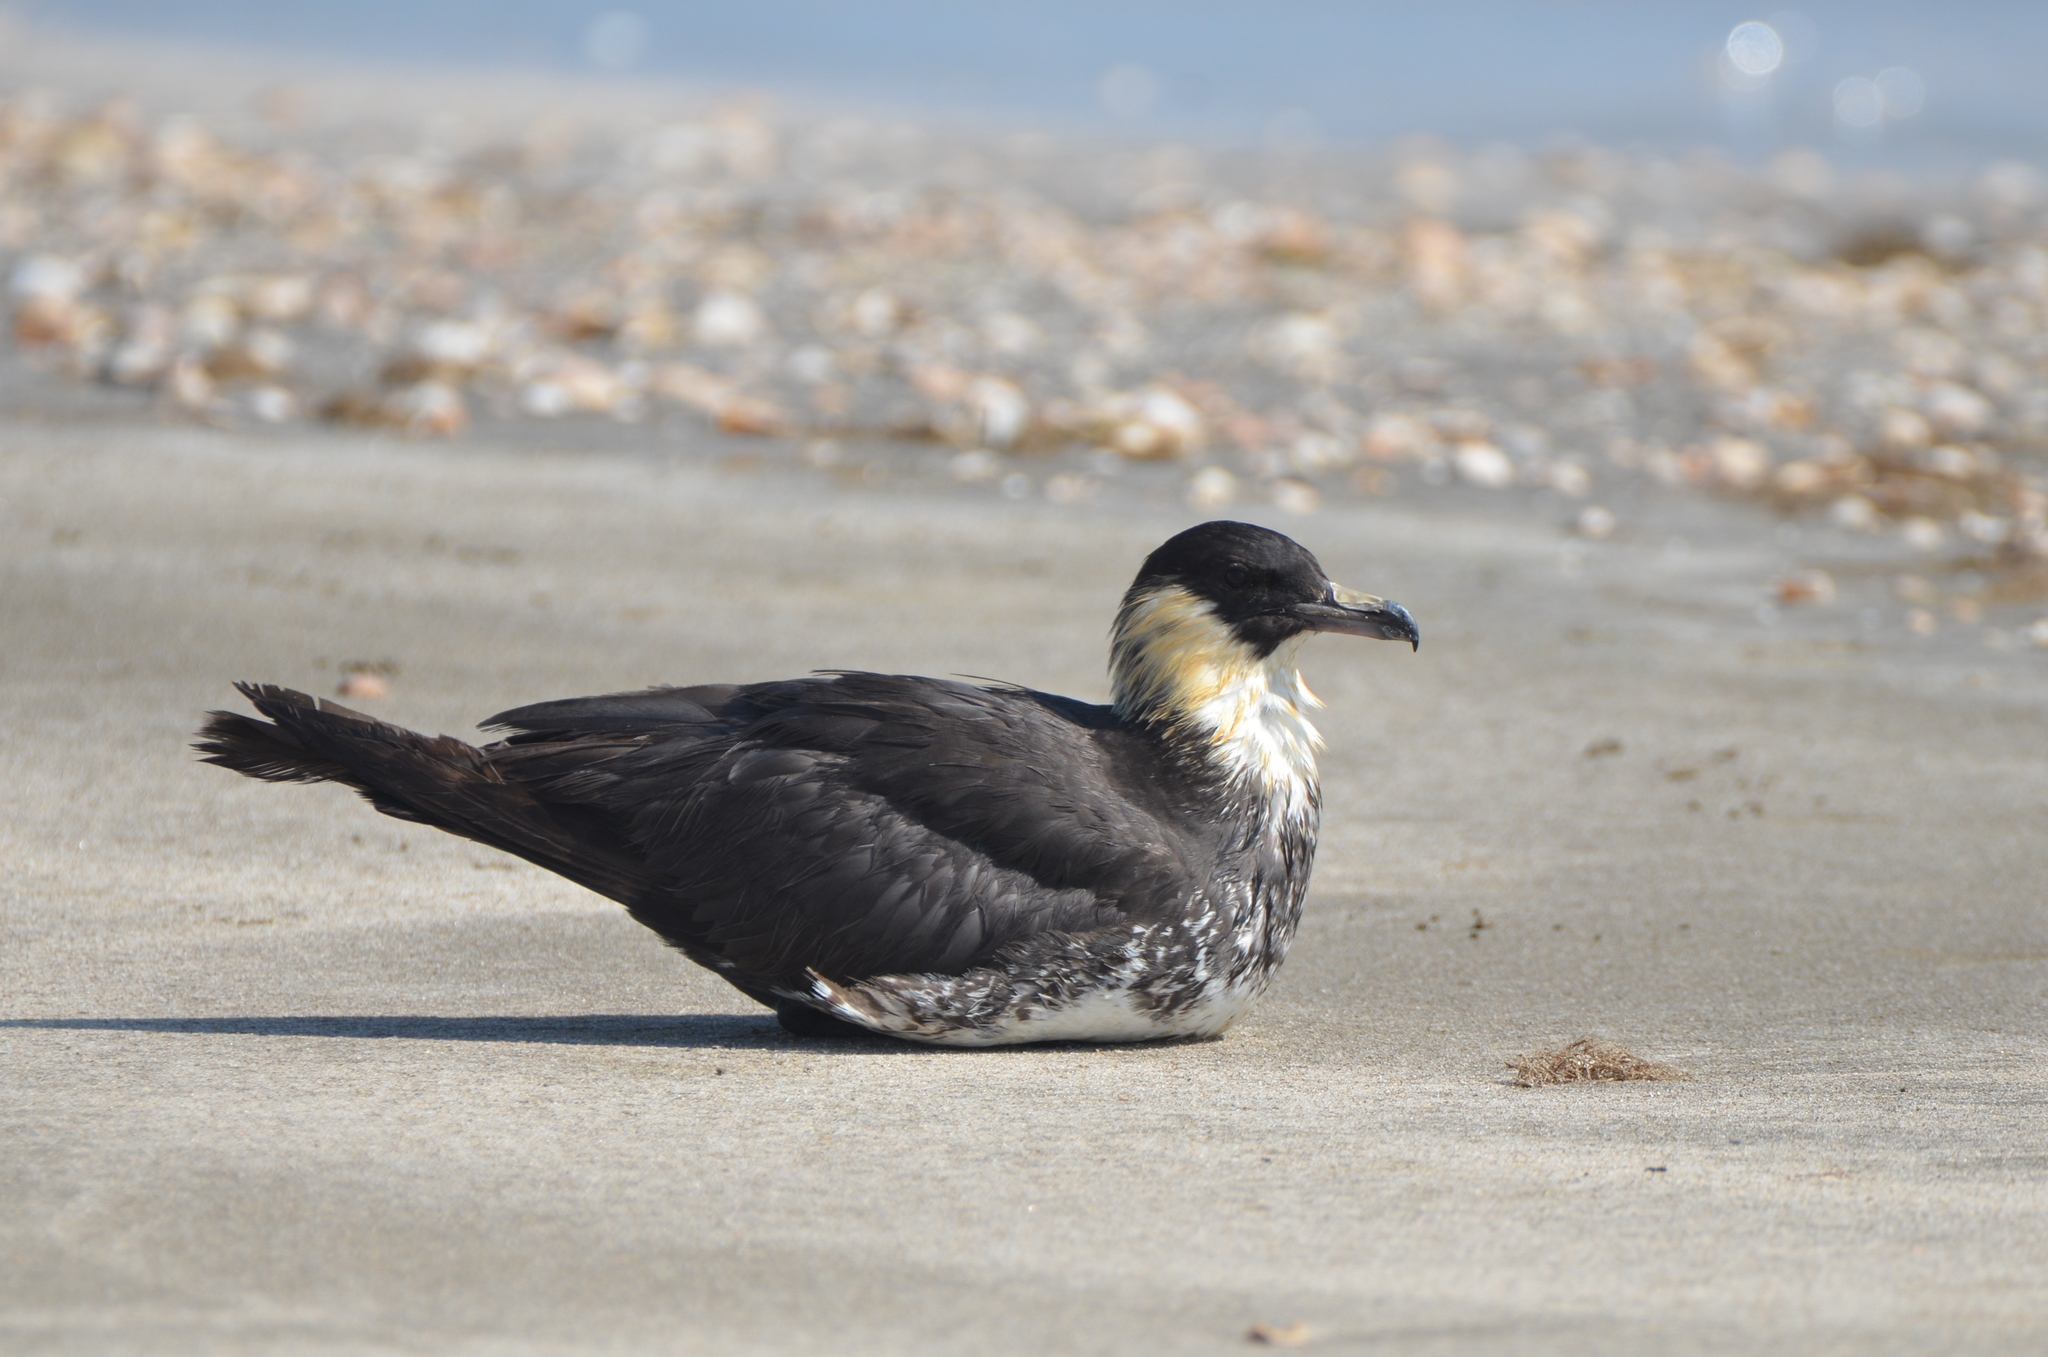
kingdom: Animalia
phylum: Chordata
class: Aves
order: Charadriiformes
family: Stercorariidae
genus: Stercorarius
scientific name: Stercorarius pomarinus
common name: Pomarine jaeger
